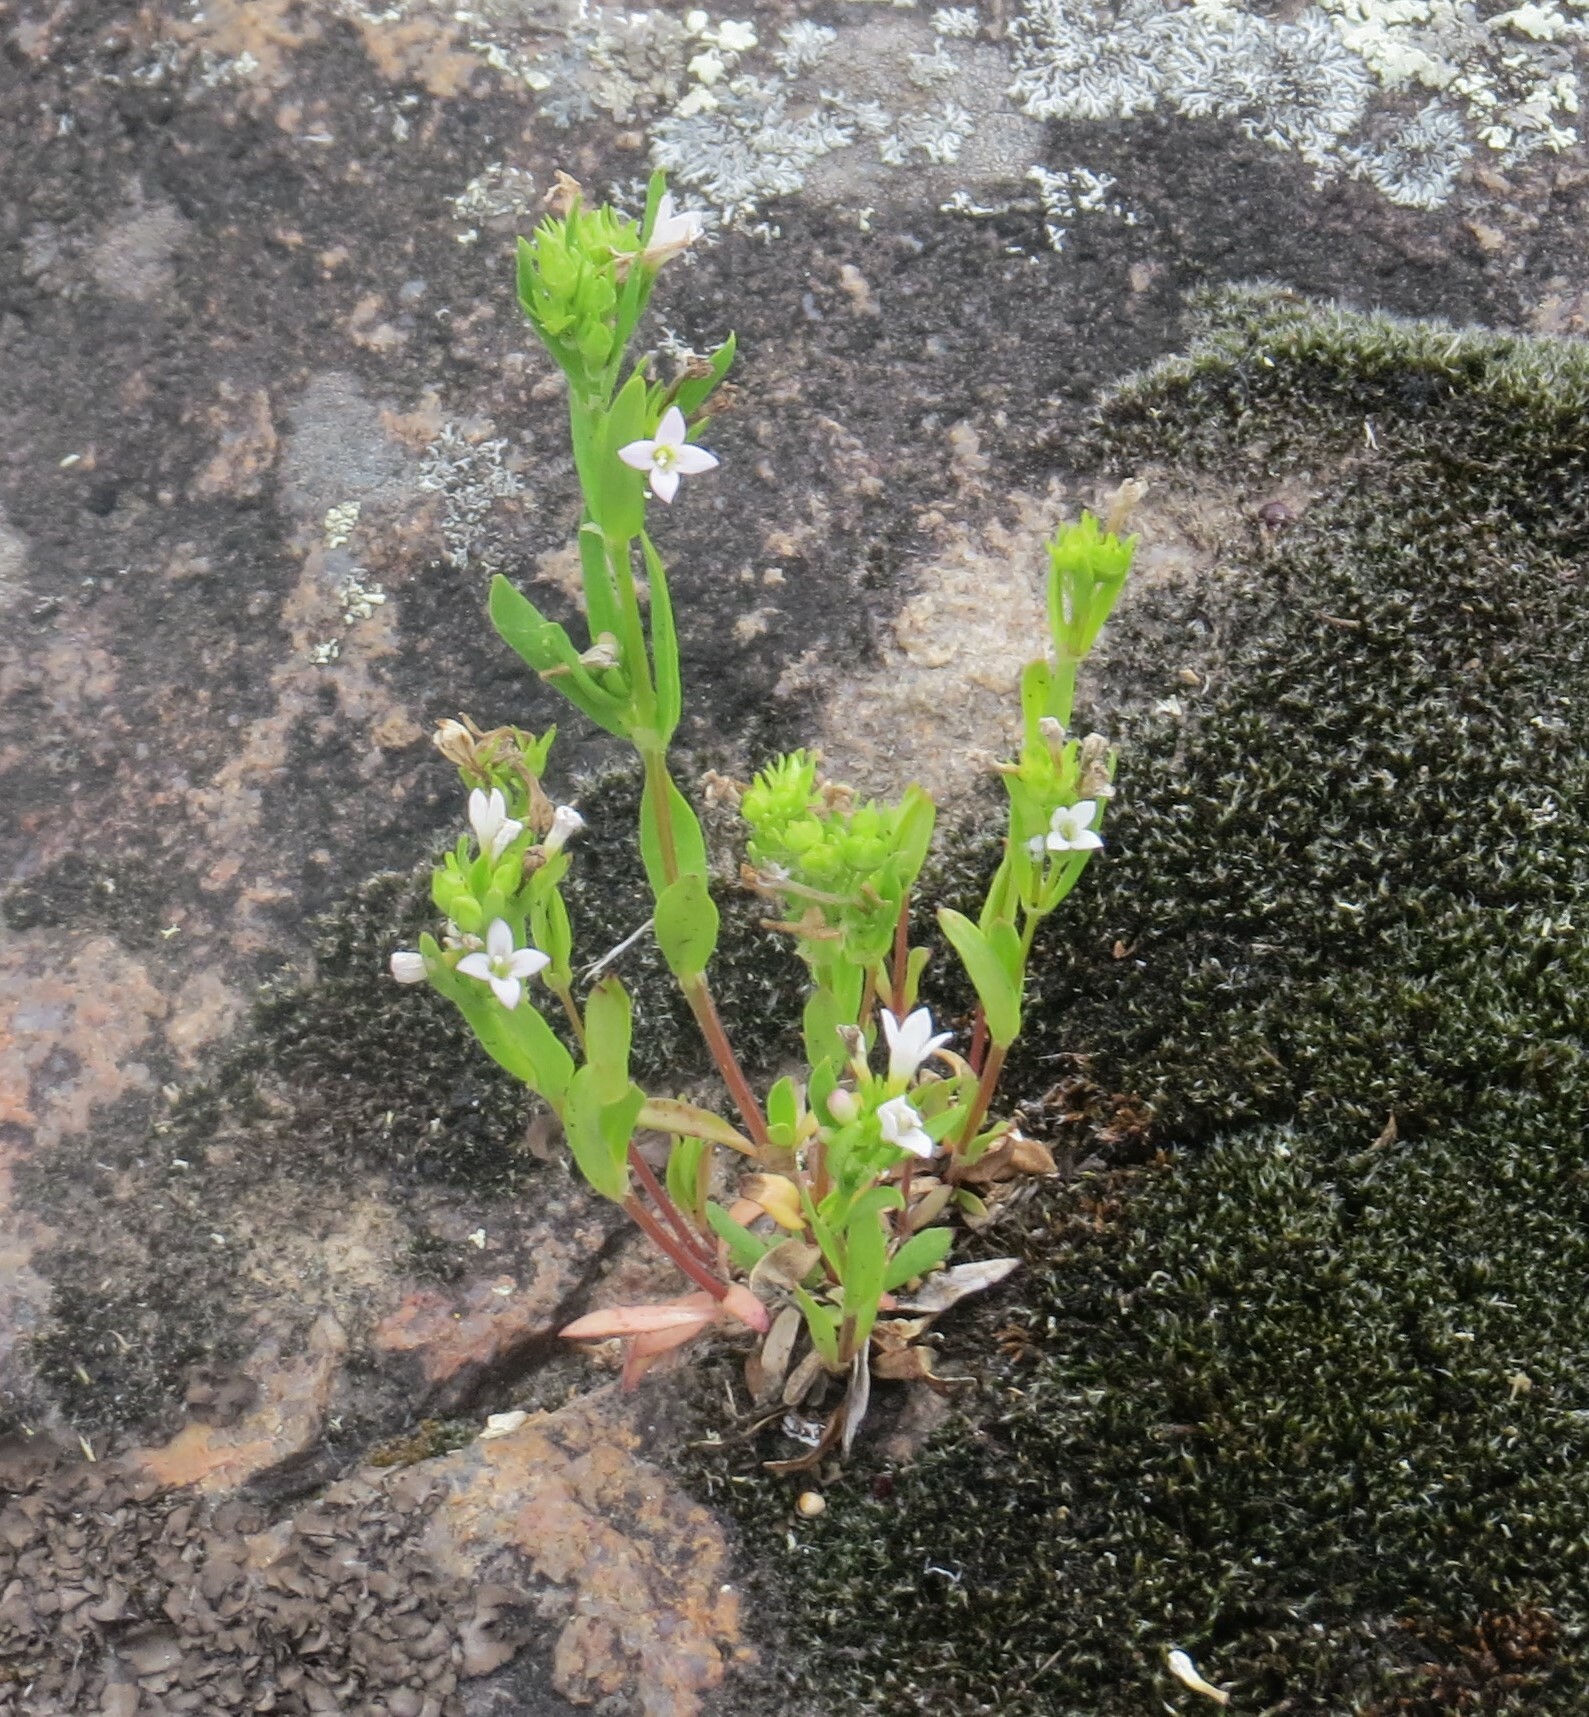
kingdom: Plantae
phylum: Tracheophyta
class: Magnoliopsida
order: Gentianales
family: Rubiaceae
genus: Houstonia
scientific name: Houstonia longifolia
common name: Long-leaved bluets
